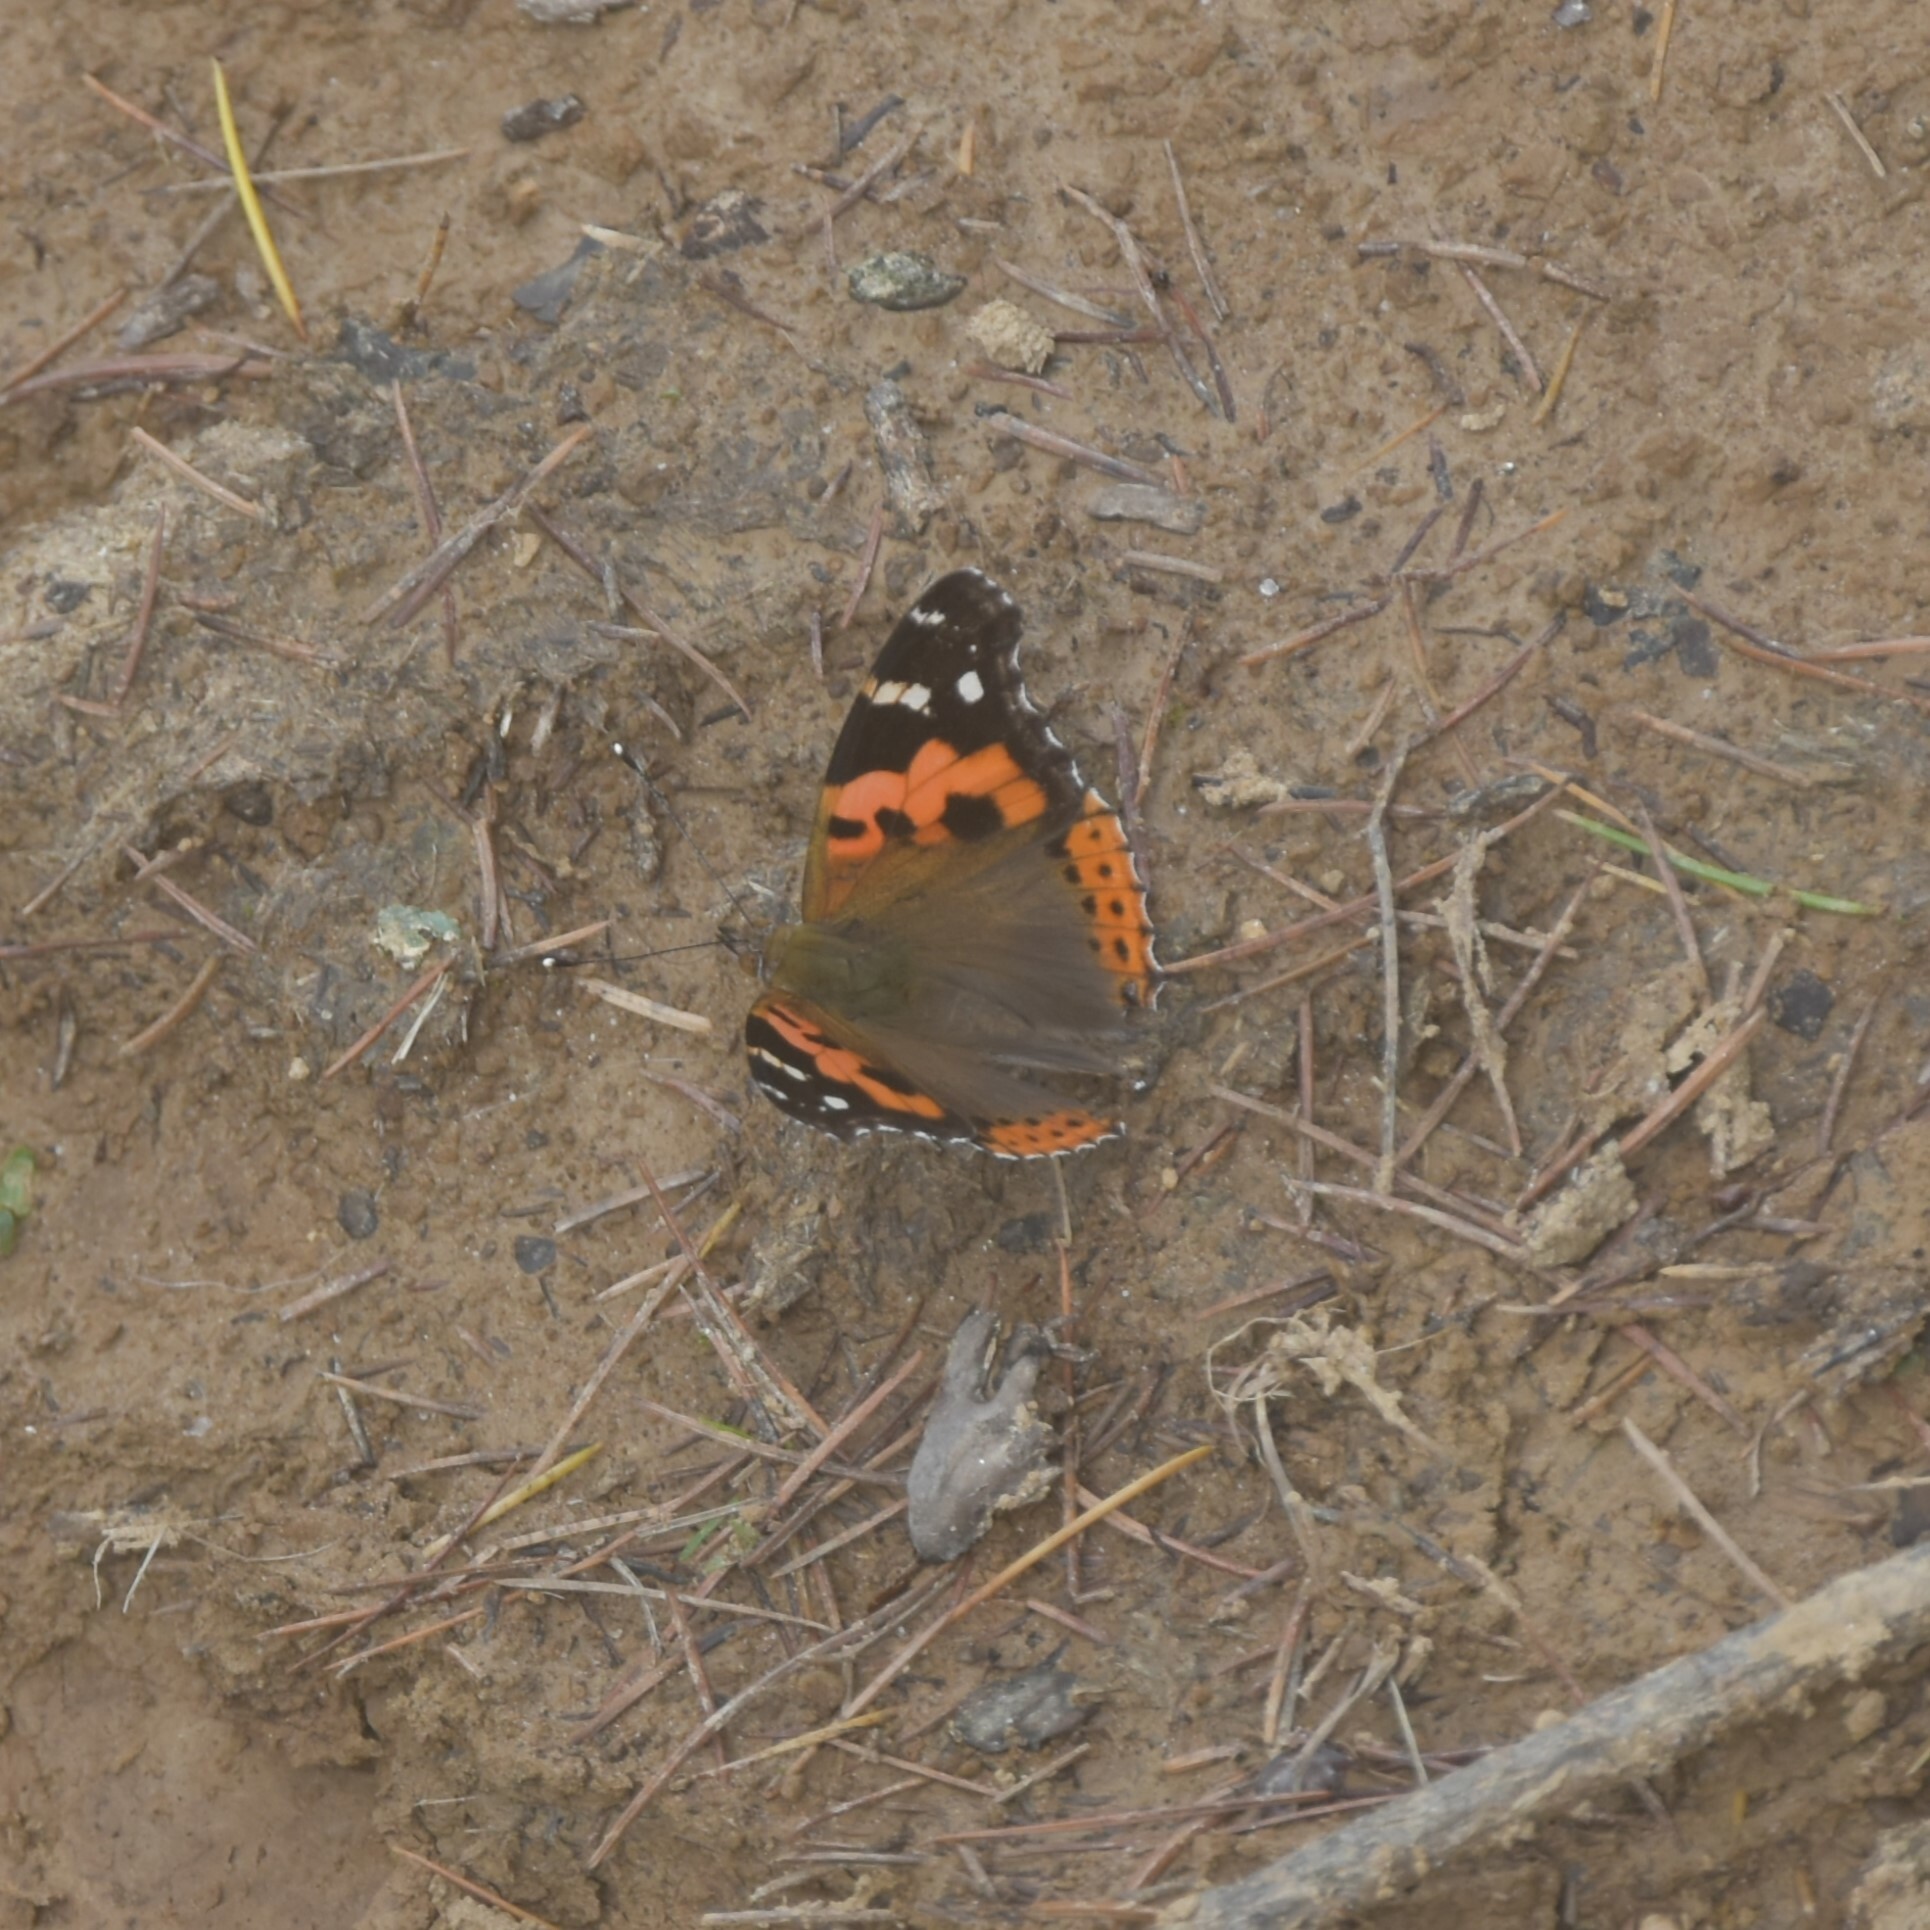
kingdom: Animalia
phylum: Arthropoda
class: Insecta
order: Lepidoptera
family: Nymphalidae
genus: Vanessa
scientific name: Vanessa indica
